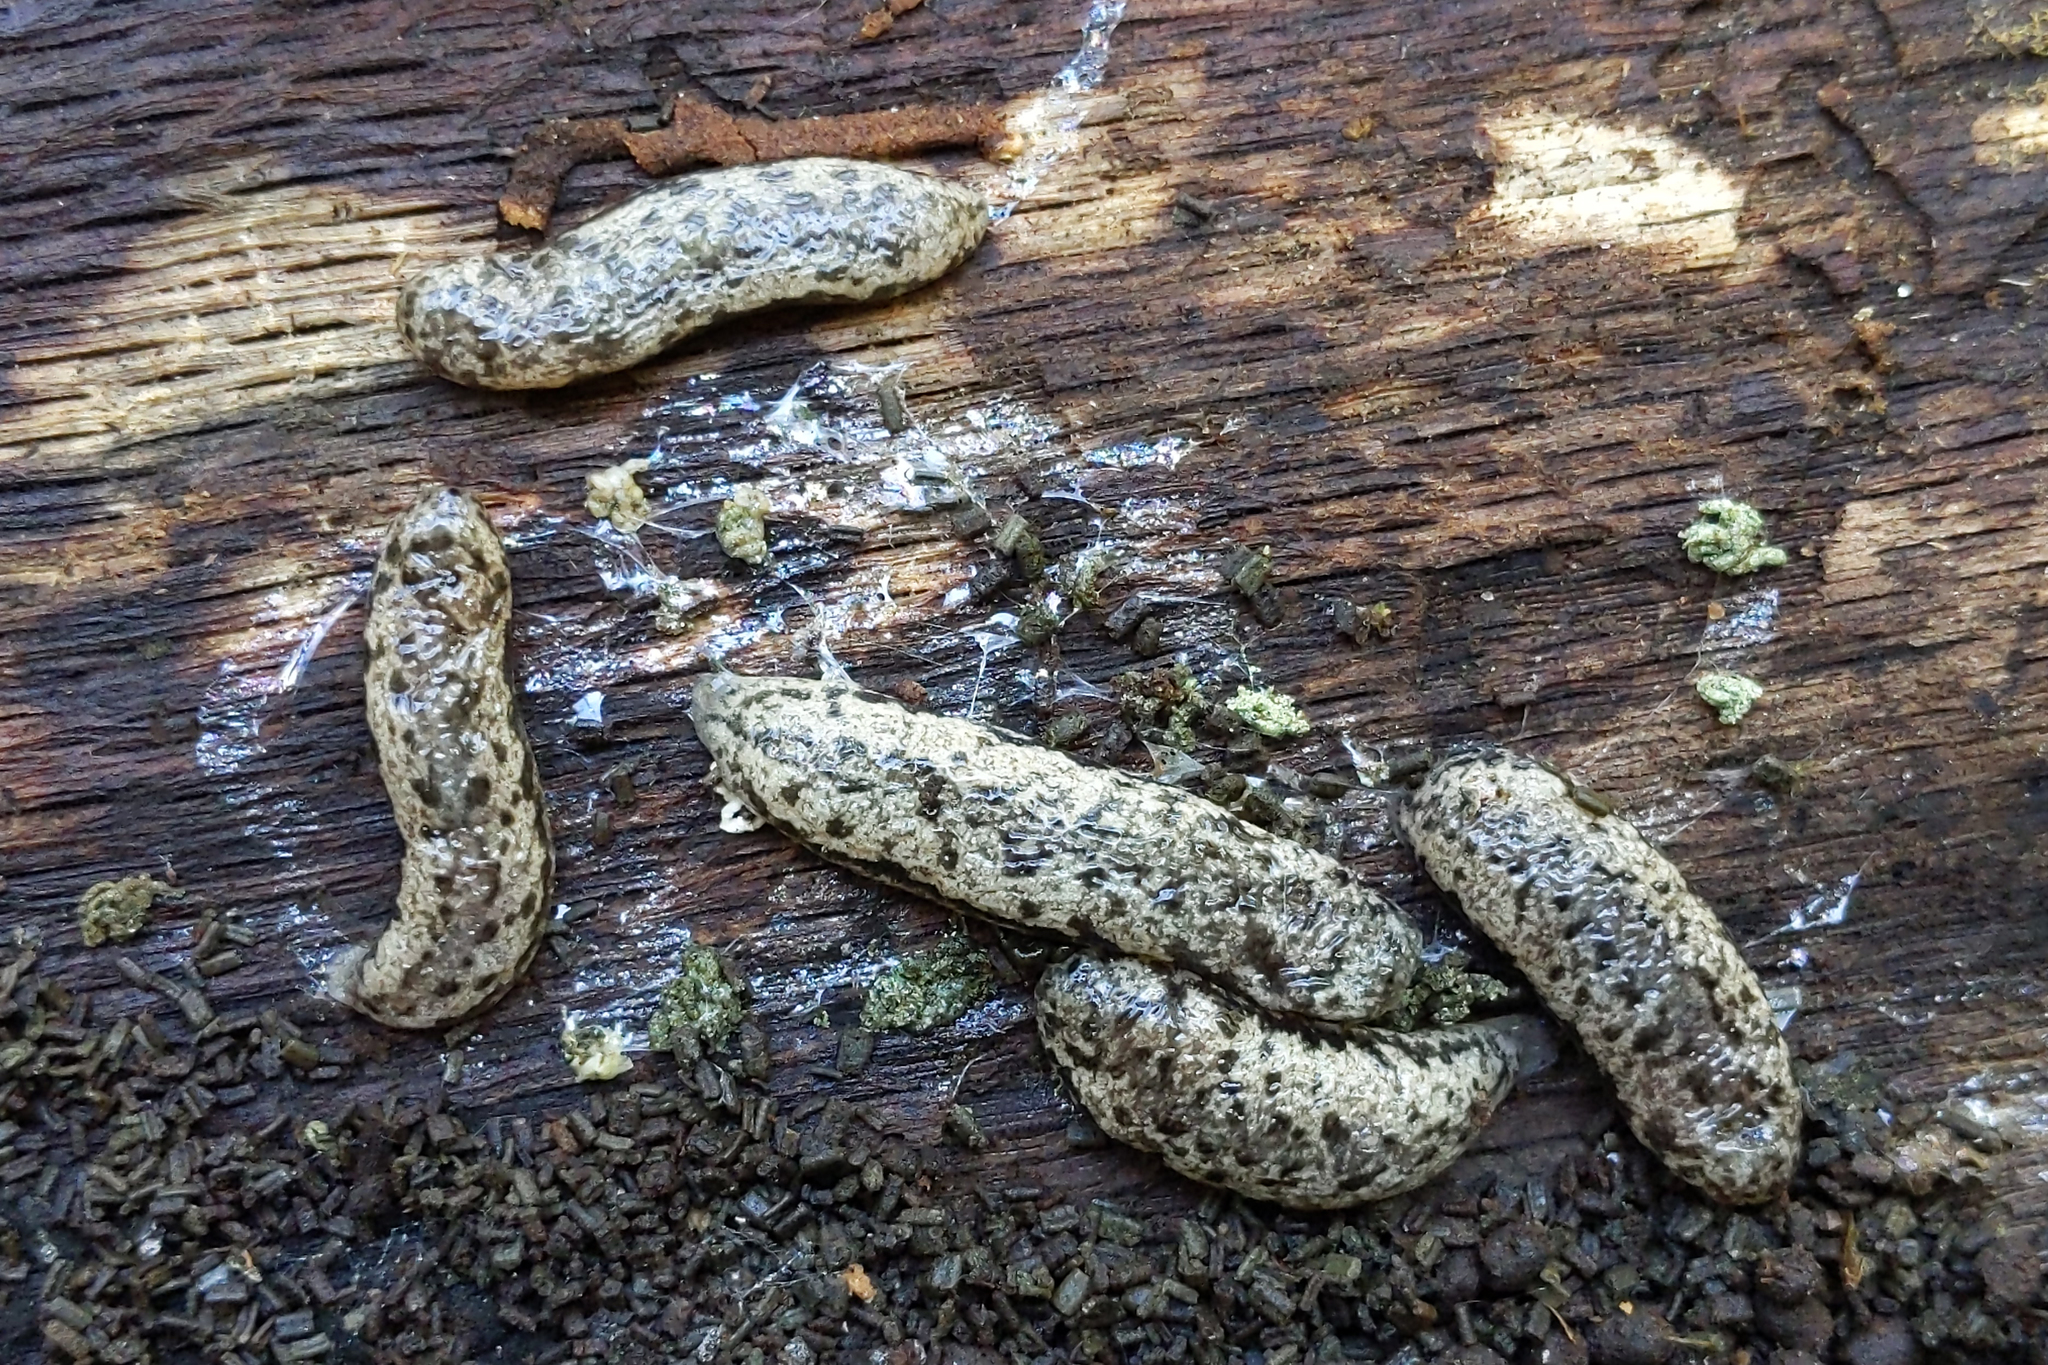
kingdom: Animalia
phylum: Mollusca
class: Gastropoda
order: Stylommatophora
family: Philomycidae
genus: Megapallifera
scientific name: Megapallifera mutabilis
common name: Changeable mantleslug
